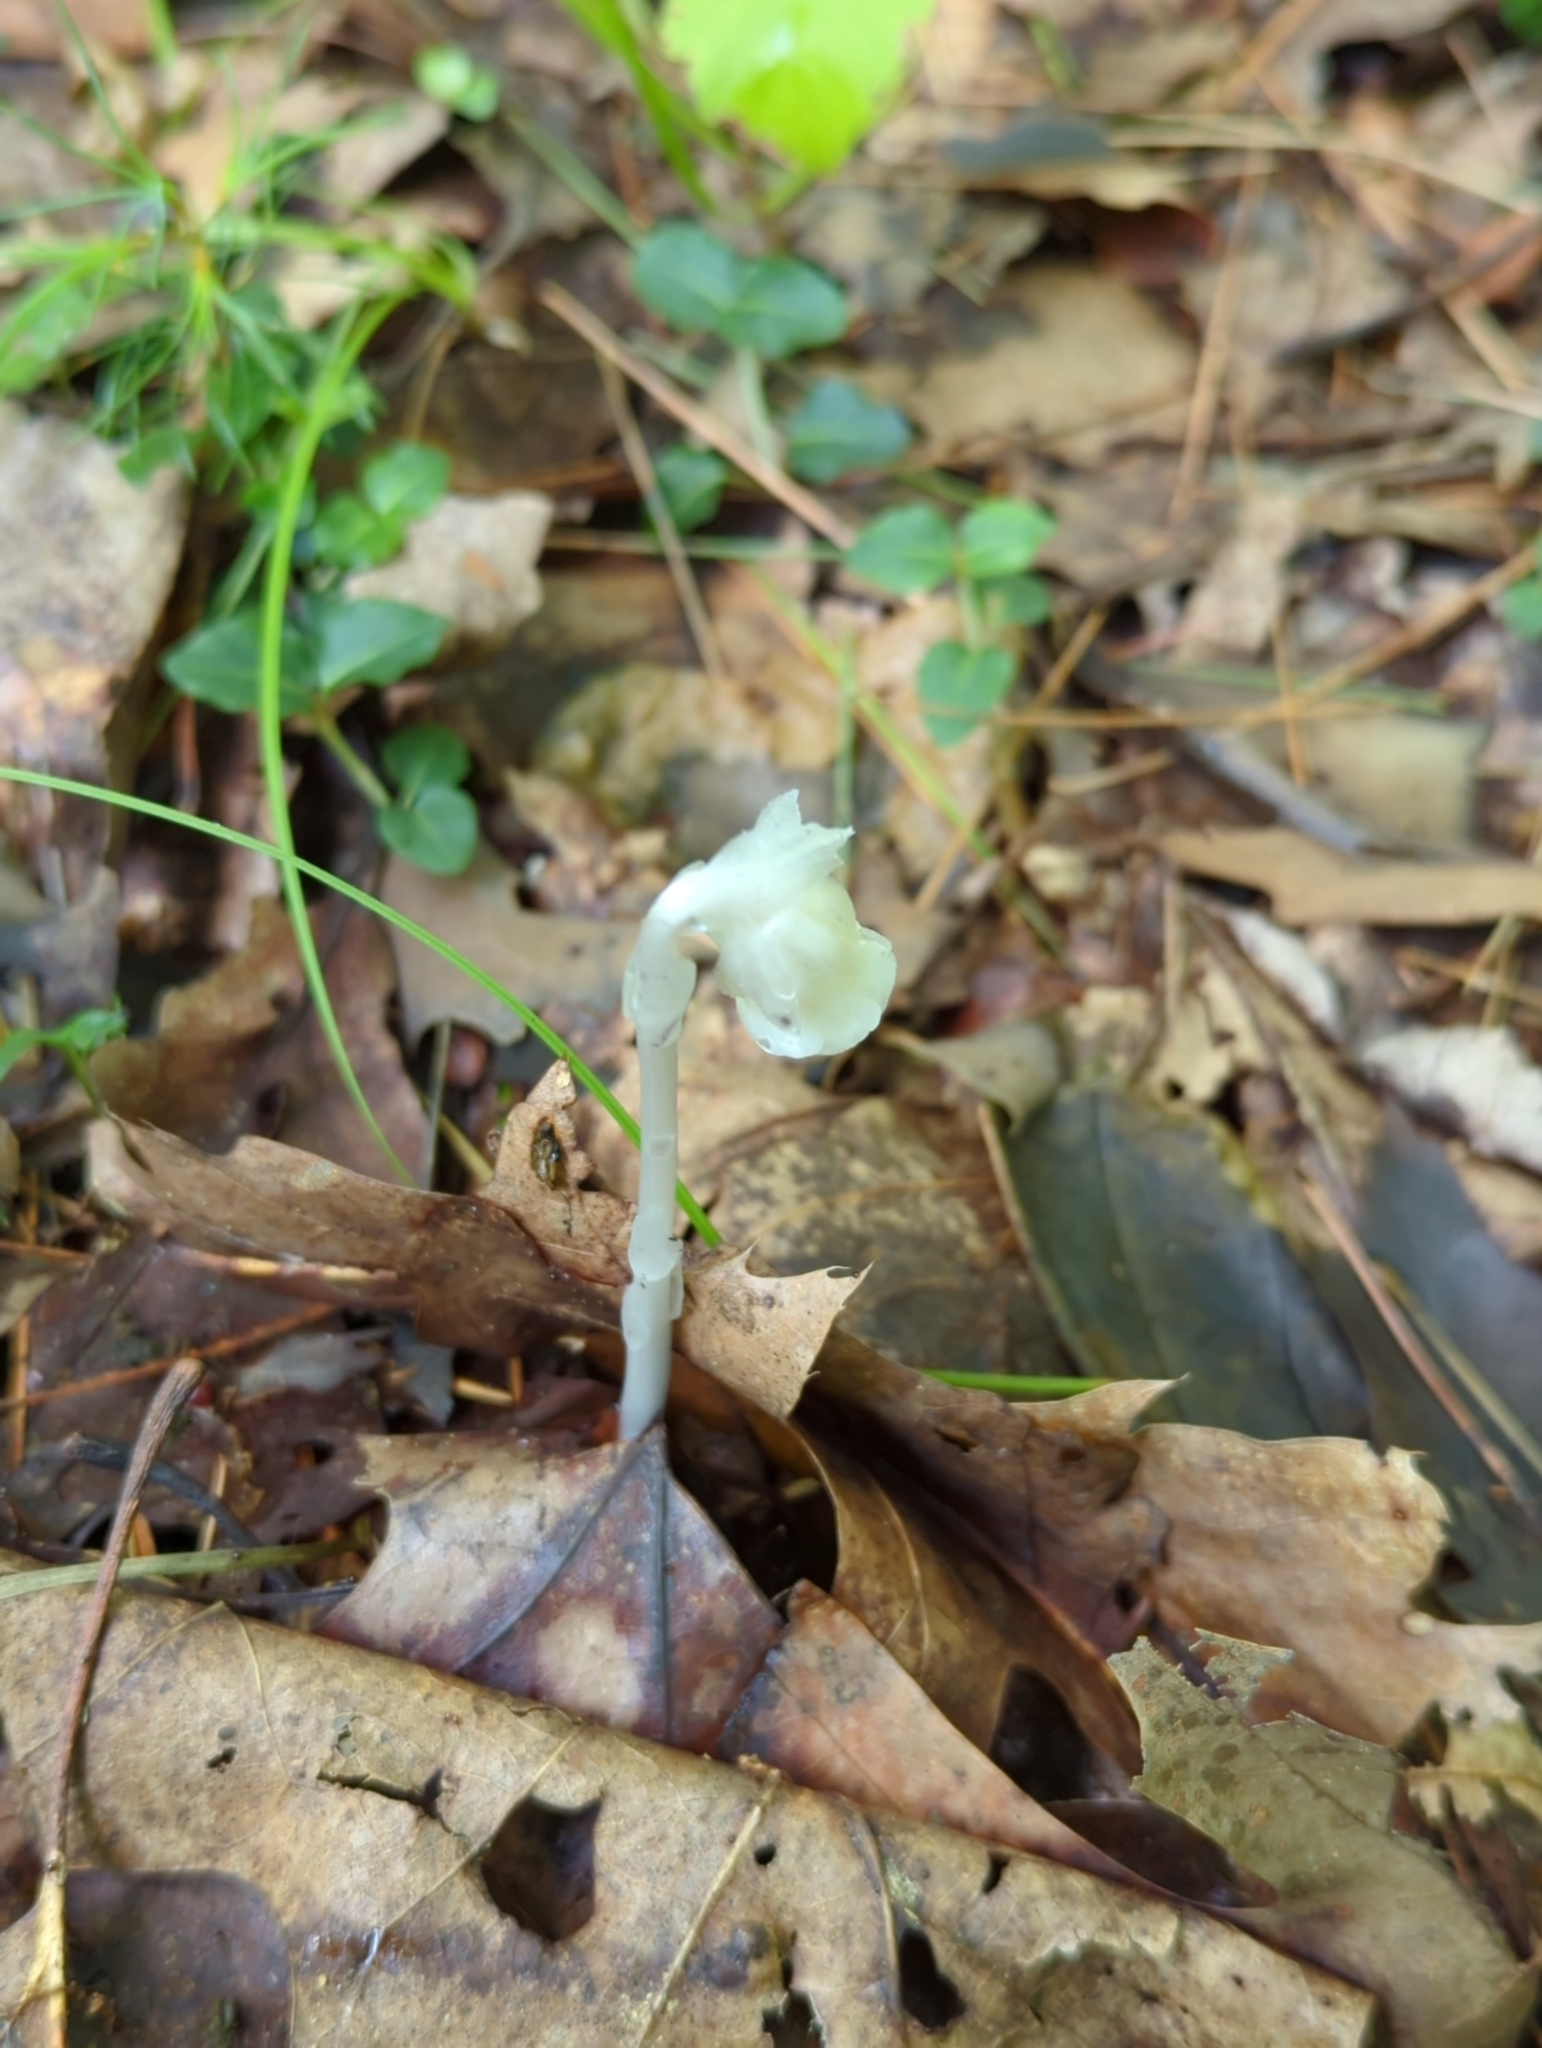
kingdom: Plantae
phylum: Tracheophyta
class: Magnoliopsida
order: Ericales
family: Ericaceae
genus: Monotropa
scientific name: Monotropa uniflora
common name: Convulsion root
